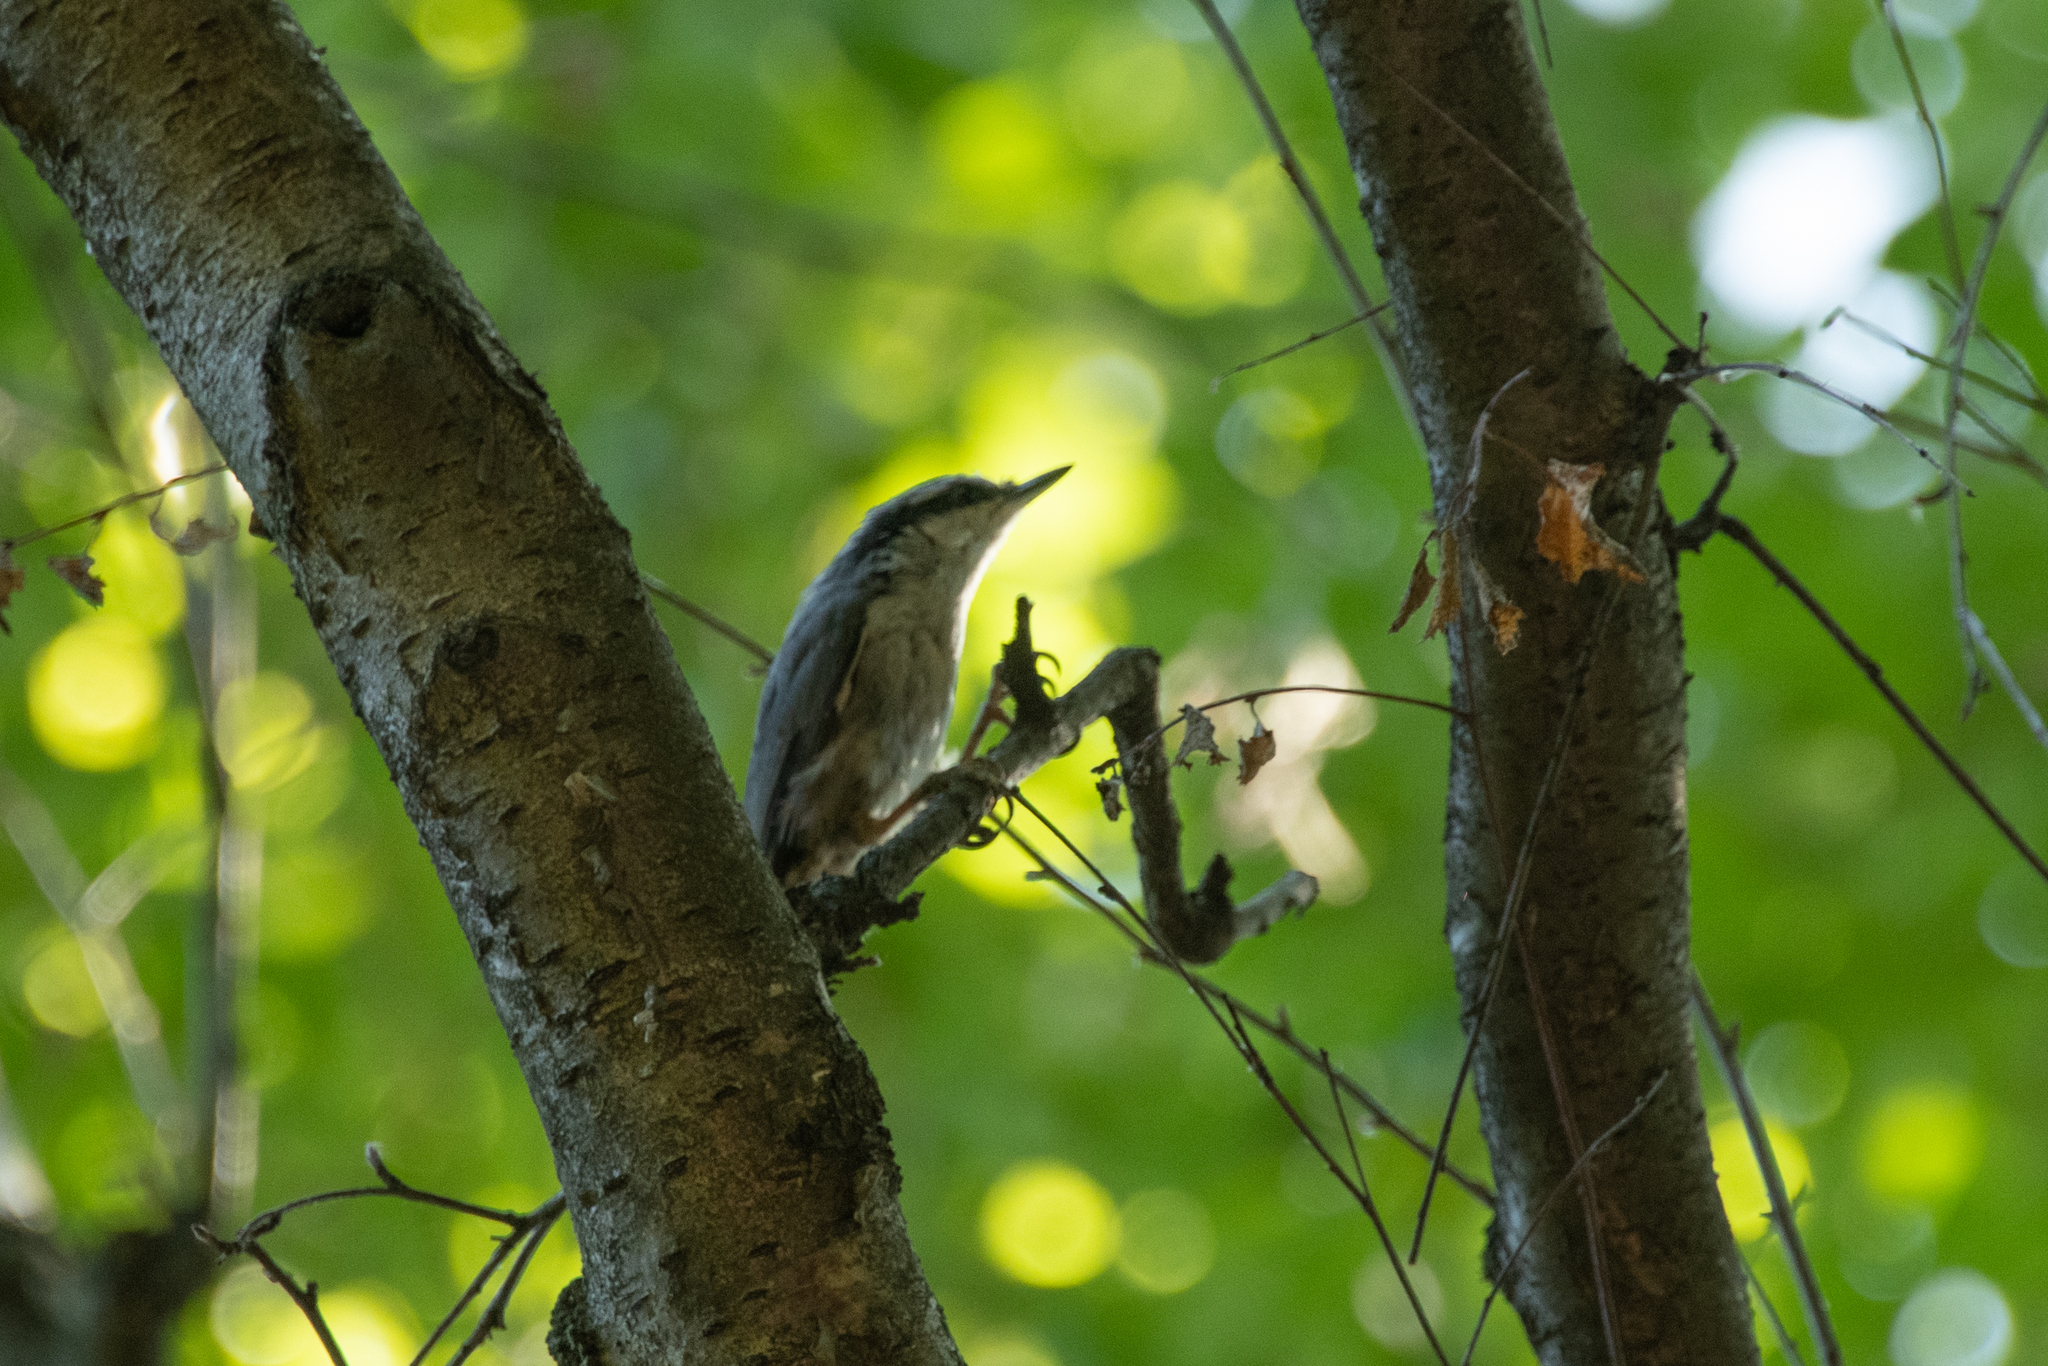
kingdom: Animalia
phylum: Chordata
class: Aves
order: Passeriformes
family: Sittidae
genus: Sitta
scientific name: Sitta europaea
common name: Eurasian nuthatch
